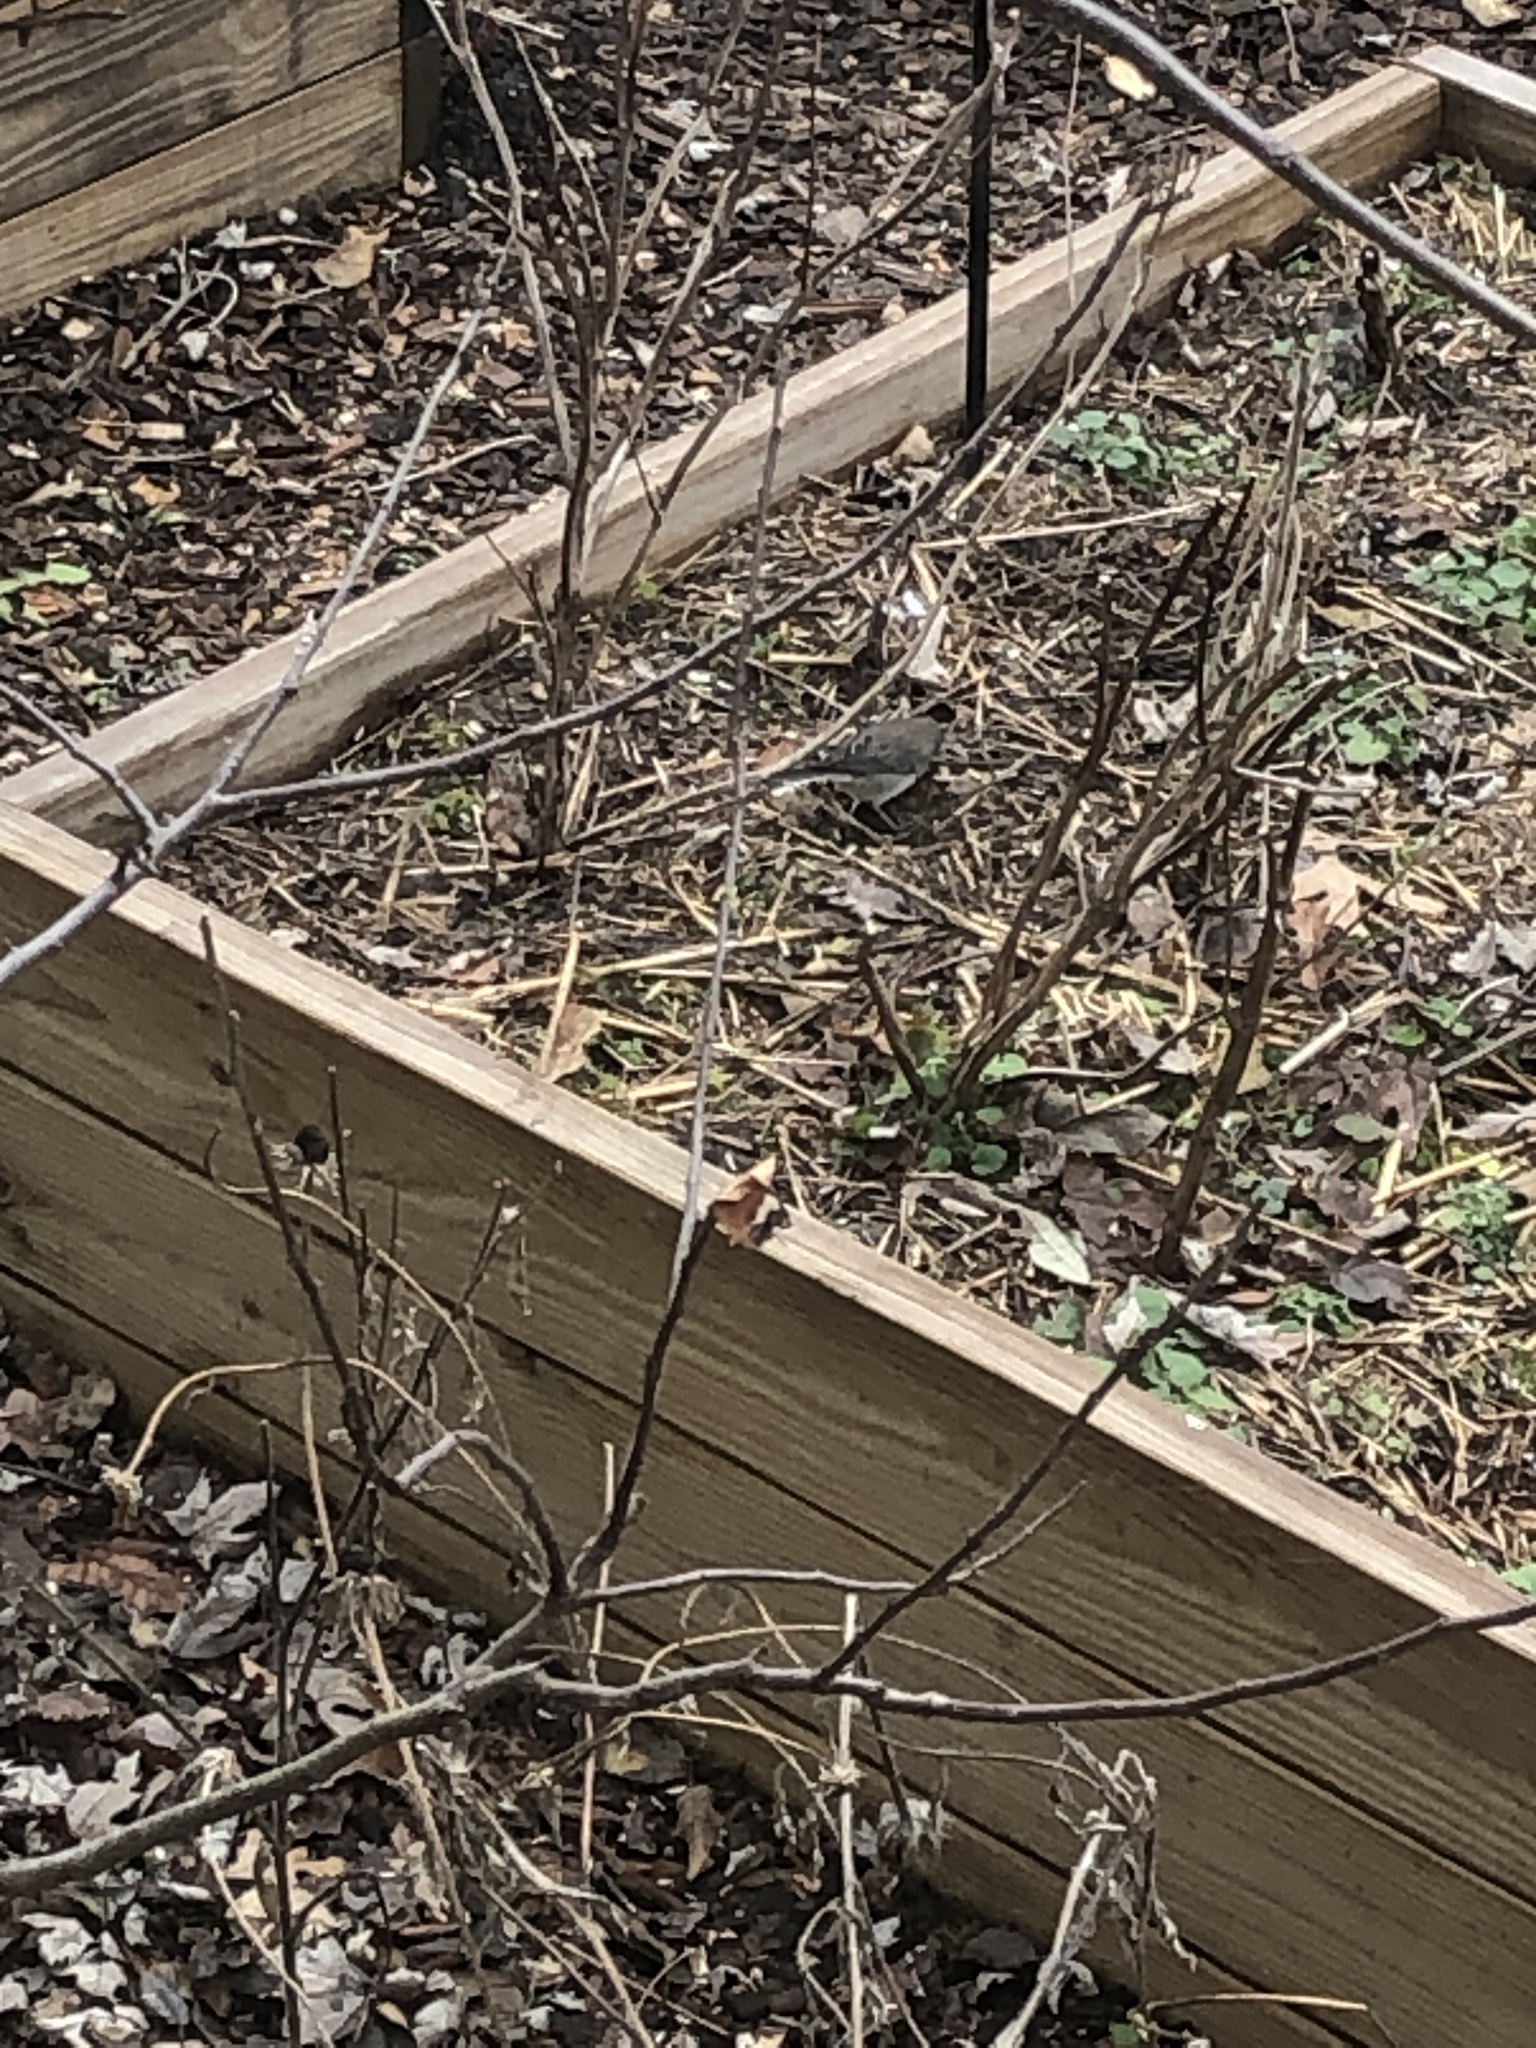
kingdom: Animalia
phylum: Chordata
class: Aves
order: Passeriformes
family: Passerellidae
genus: Junco
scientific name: Junco hyemalis
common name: Dark-eyed junco
